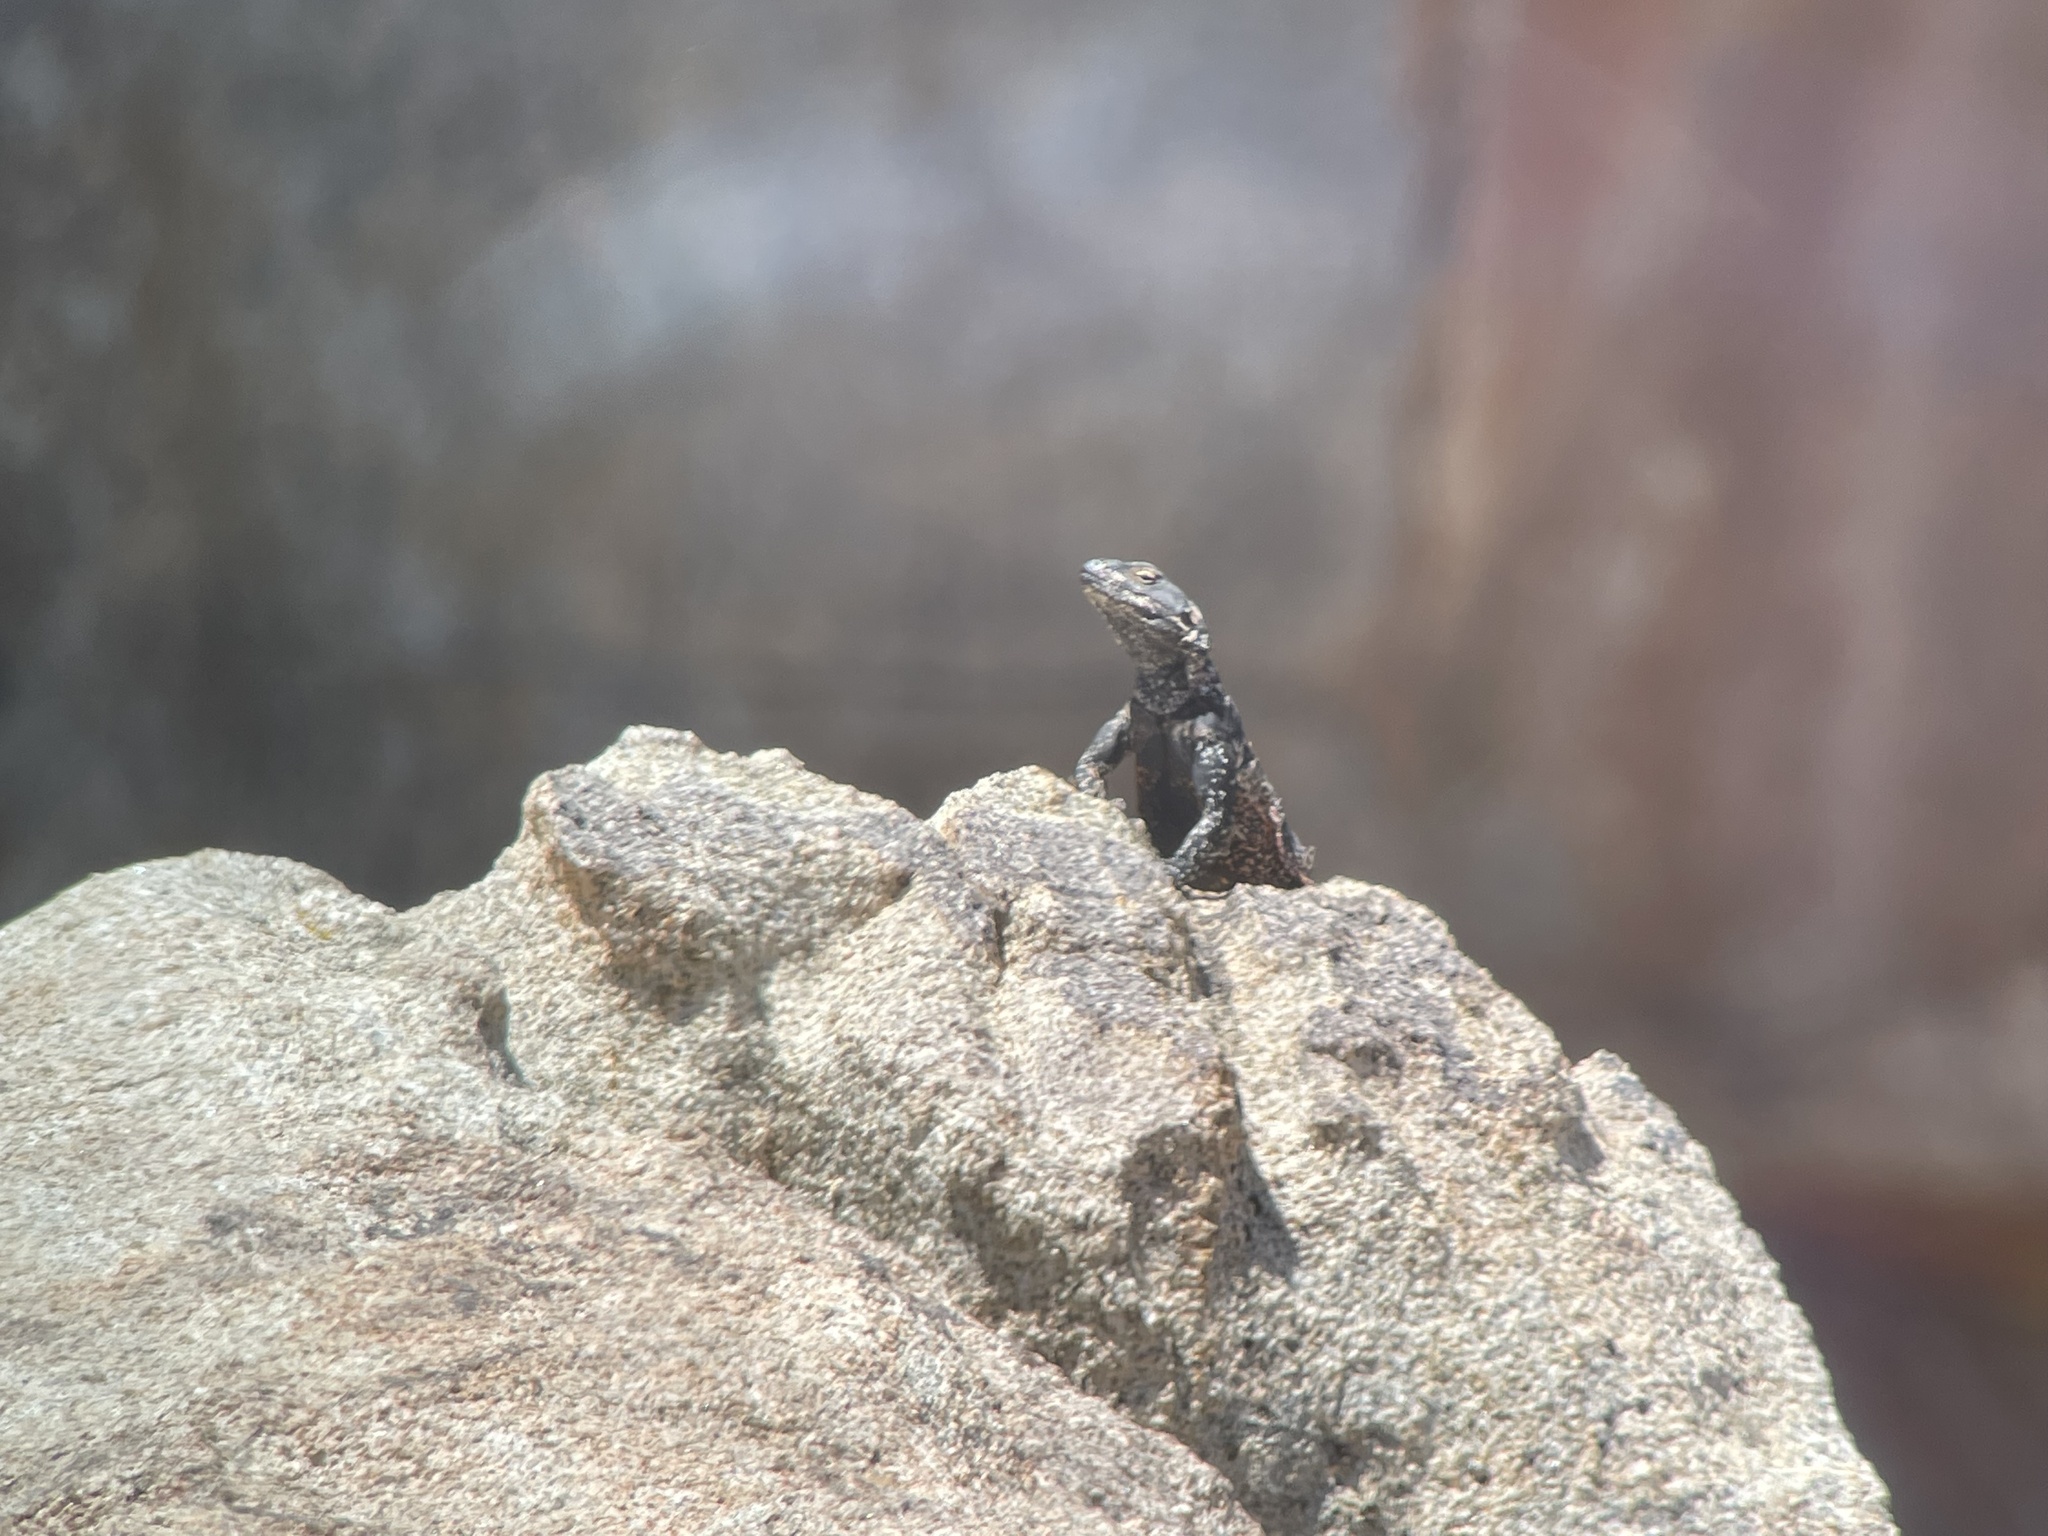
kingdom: Animalia
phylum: Chordata
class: Squamata
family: Iguanidae
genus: Sauromalus
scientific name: Sauromalus ater
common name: Northern chuckwalla
